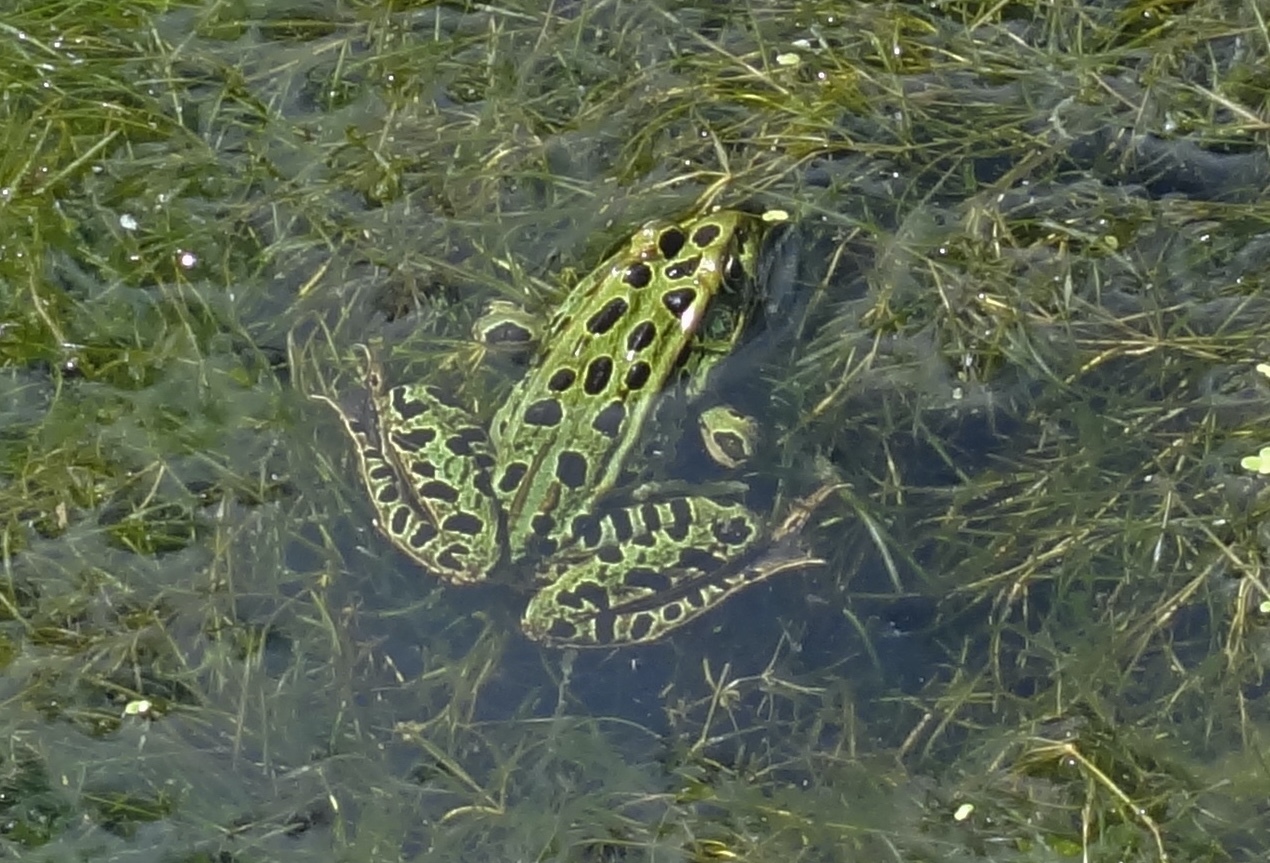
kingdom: Animalia
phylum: Chordata
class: Amphibia
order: Anura
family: Ranidae
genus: Lithobates
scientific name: Lithobates pipiens
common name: Northern leopard frog
